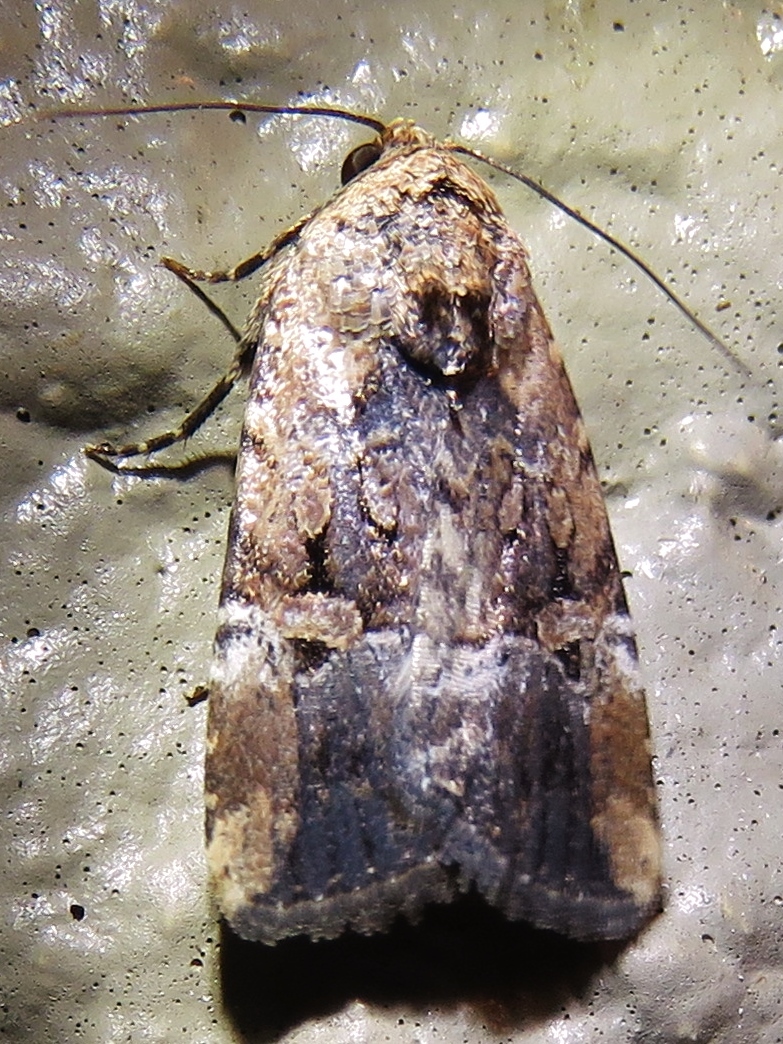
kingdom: Animalia
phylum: Arthropoda
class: Insecta
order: Lepidoptera
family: Noctuidae
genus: Elaphria
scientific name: Elaphria chalcedonia
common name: Chalcedony midget
